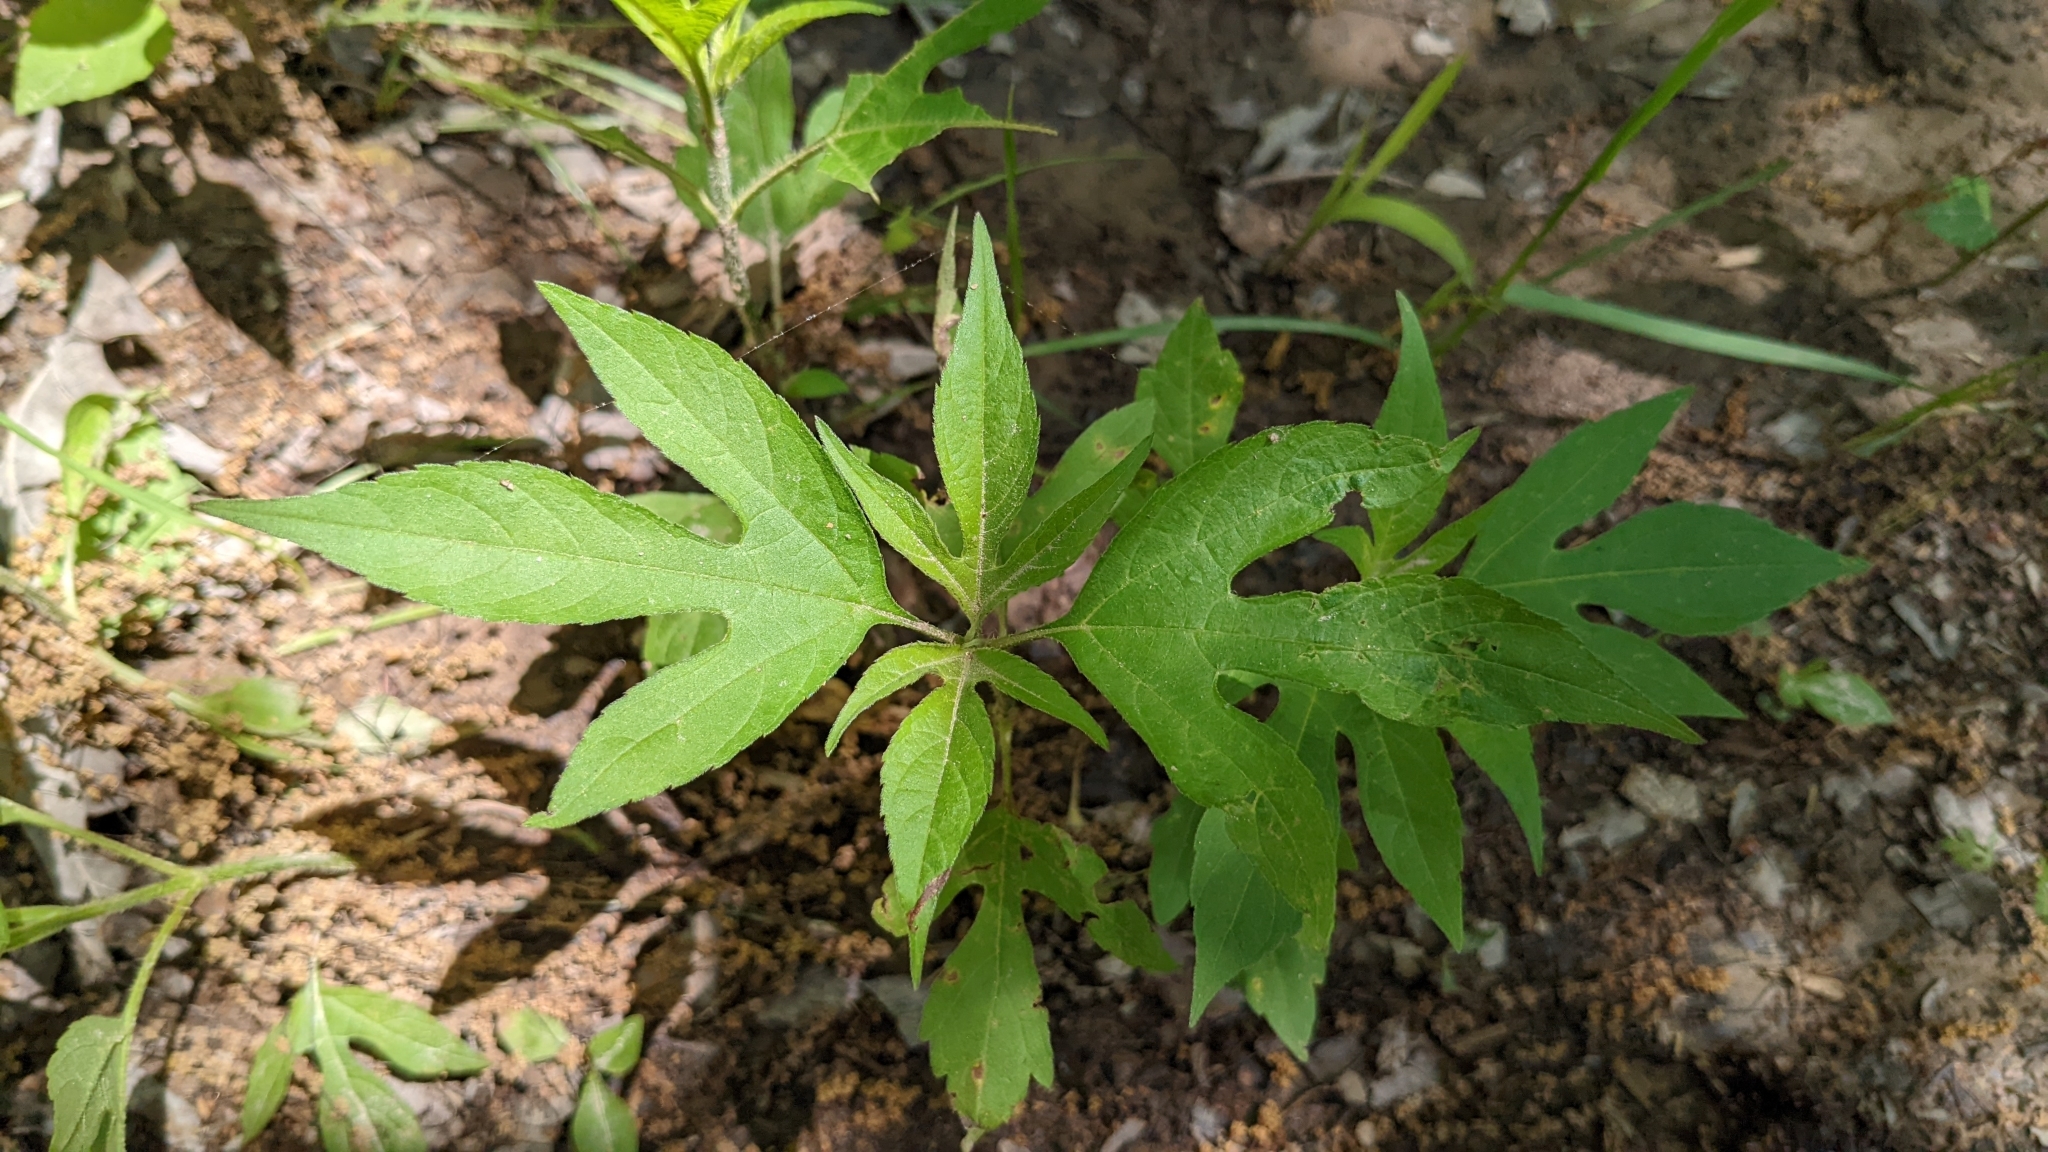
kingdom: Plantae
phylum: Tracheophyta
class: Magnoliopsida
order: Asterales
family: Asteraceae
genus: Ambrosia
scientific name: Ambrosia trifida
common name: Giant ragweed
